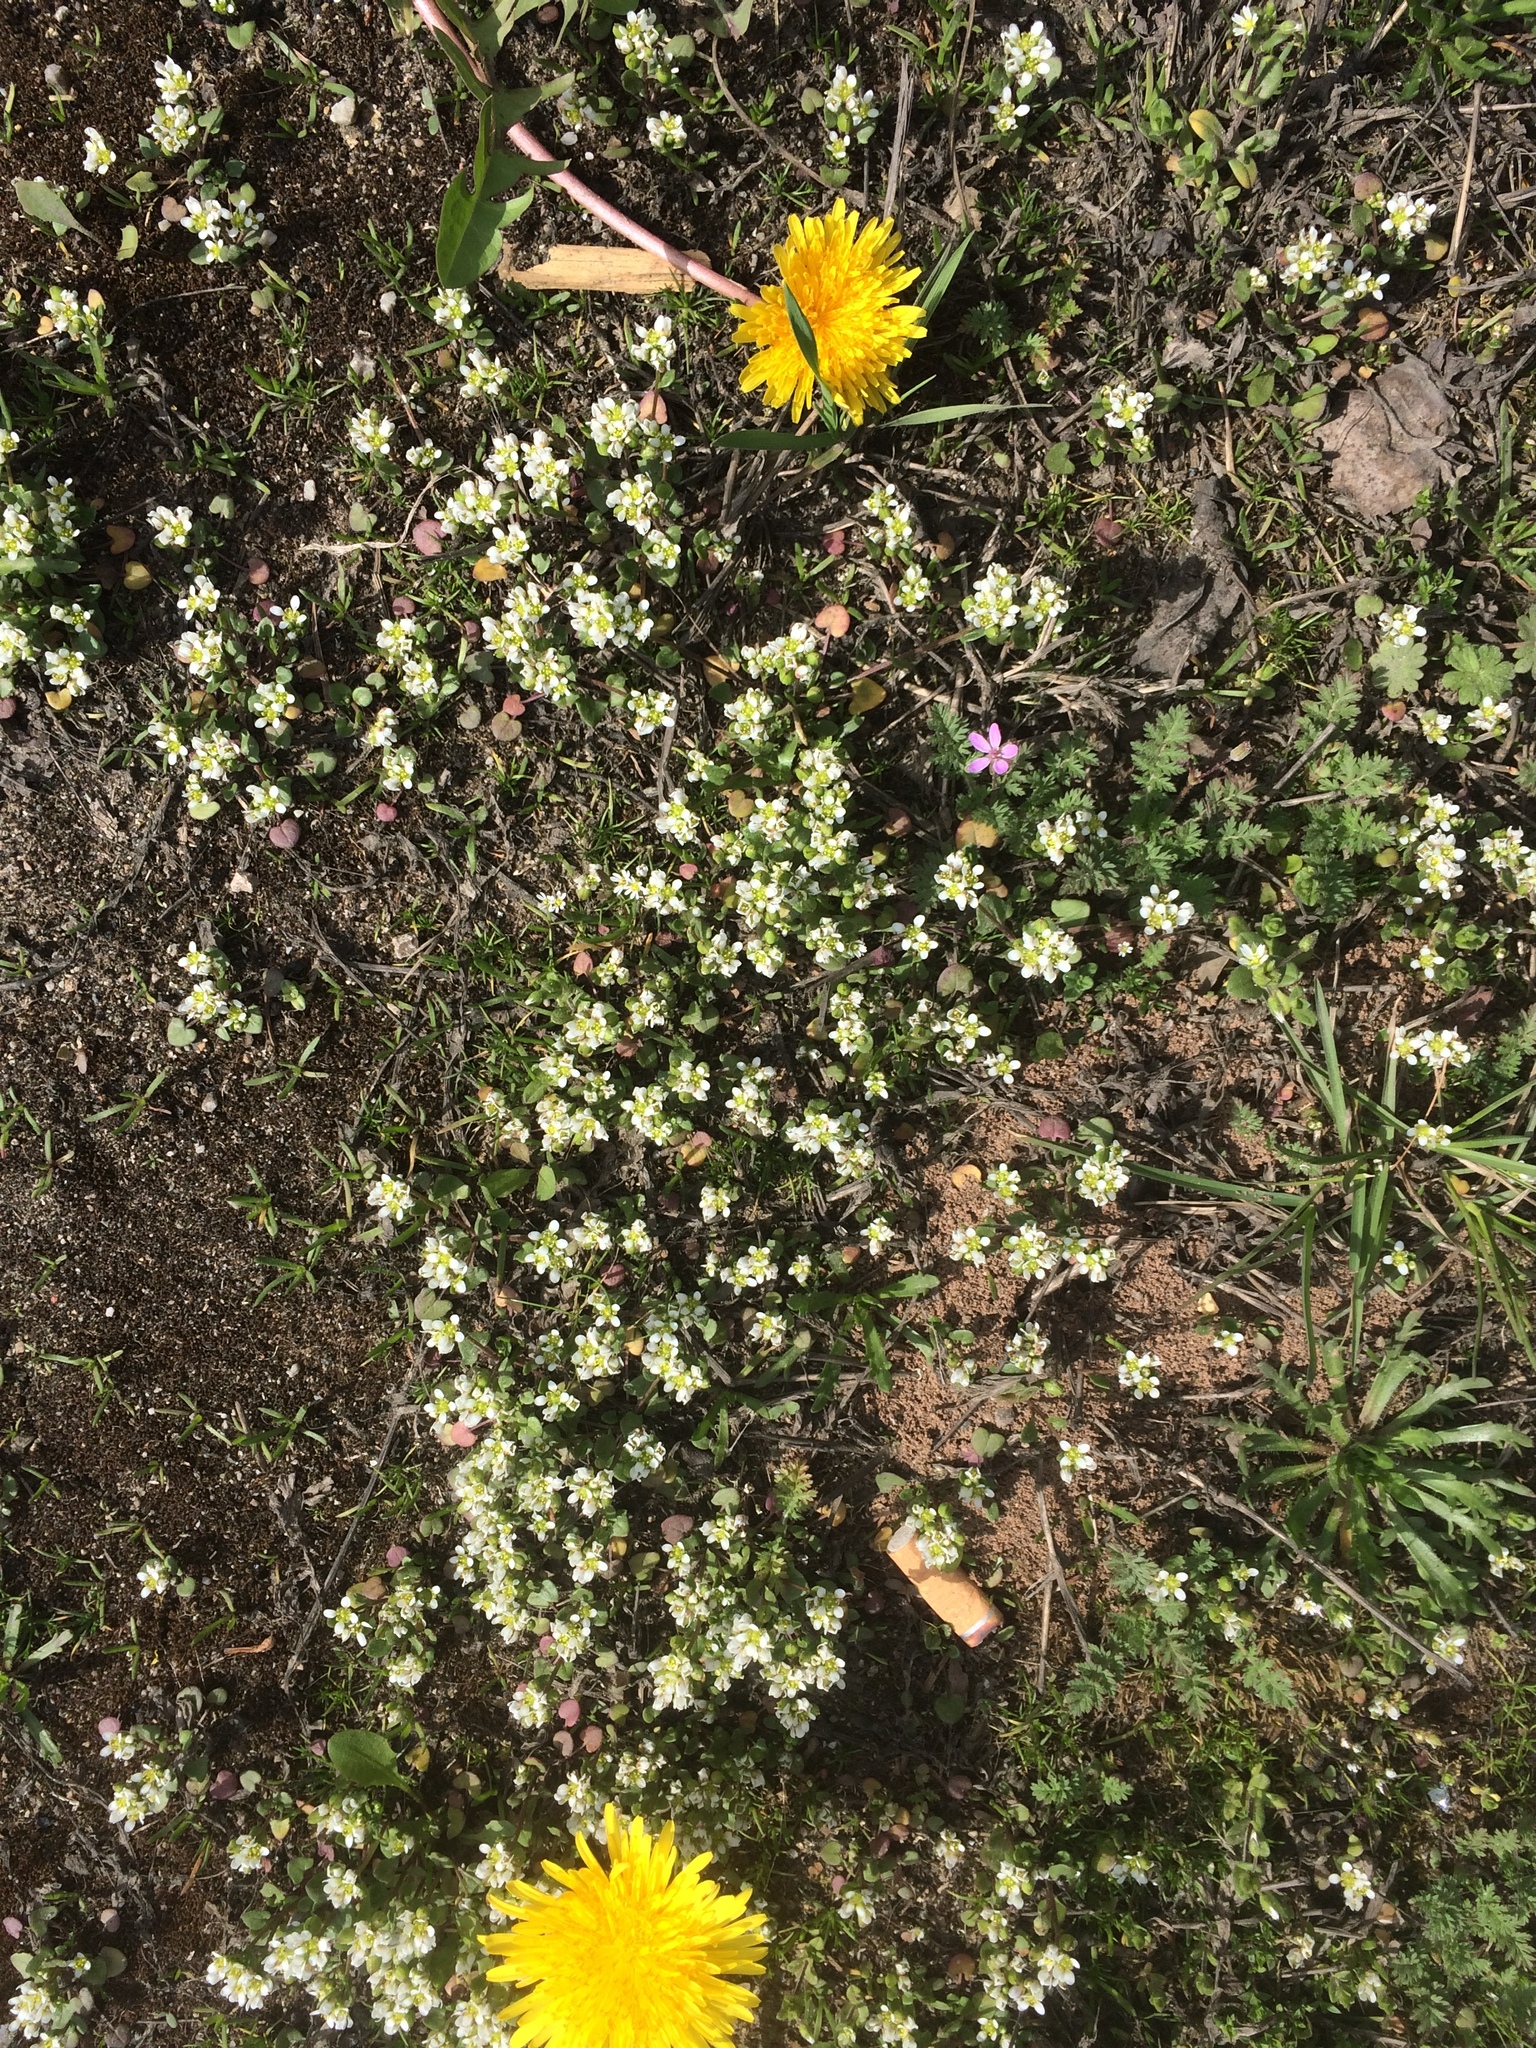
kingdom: Plantae
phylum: Tracheophyta
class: Magnoliopsida
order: Brassicales
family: Brassicaceae
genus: Cochlearia
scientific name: Cochlearia danica
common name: Early scurvygrass
